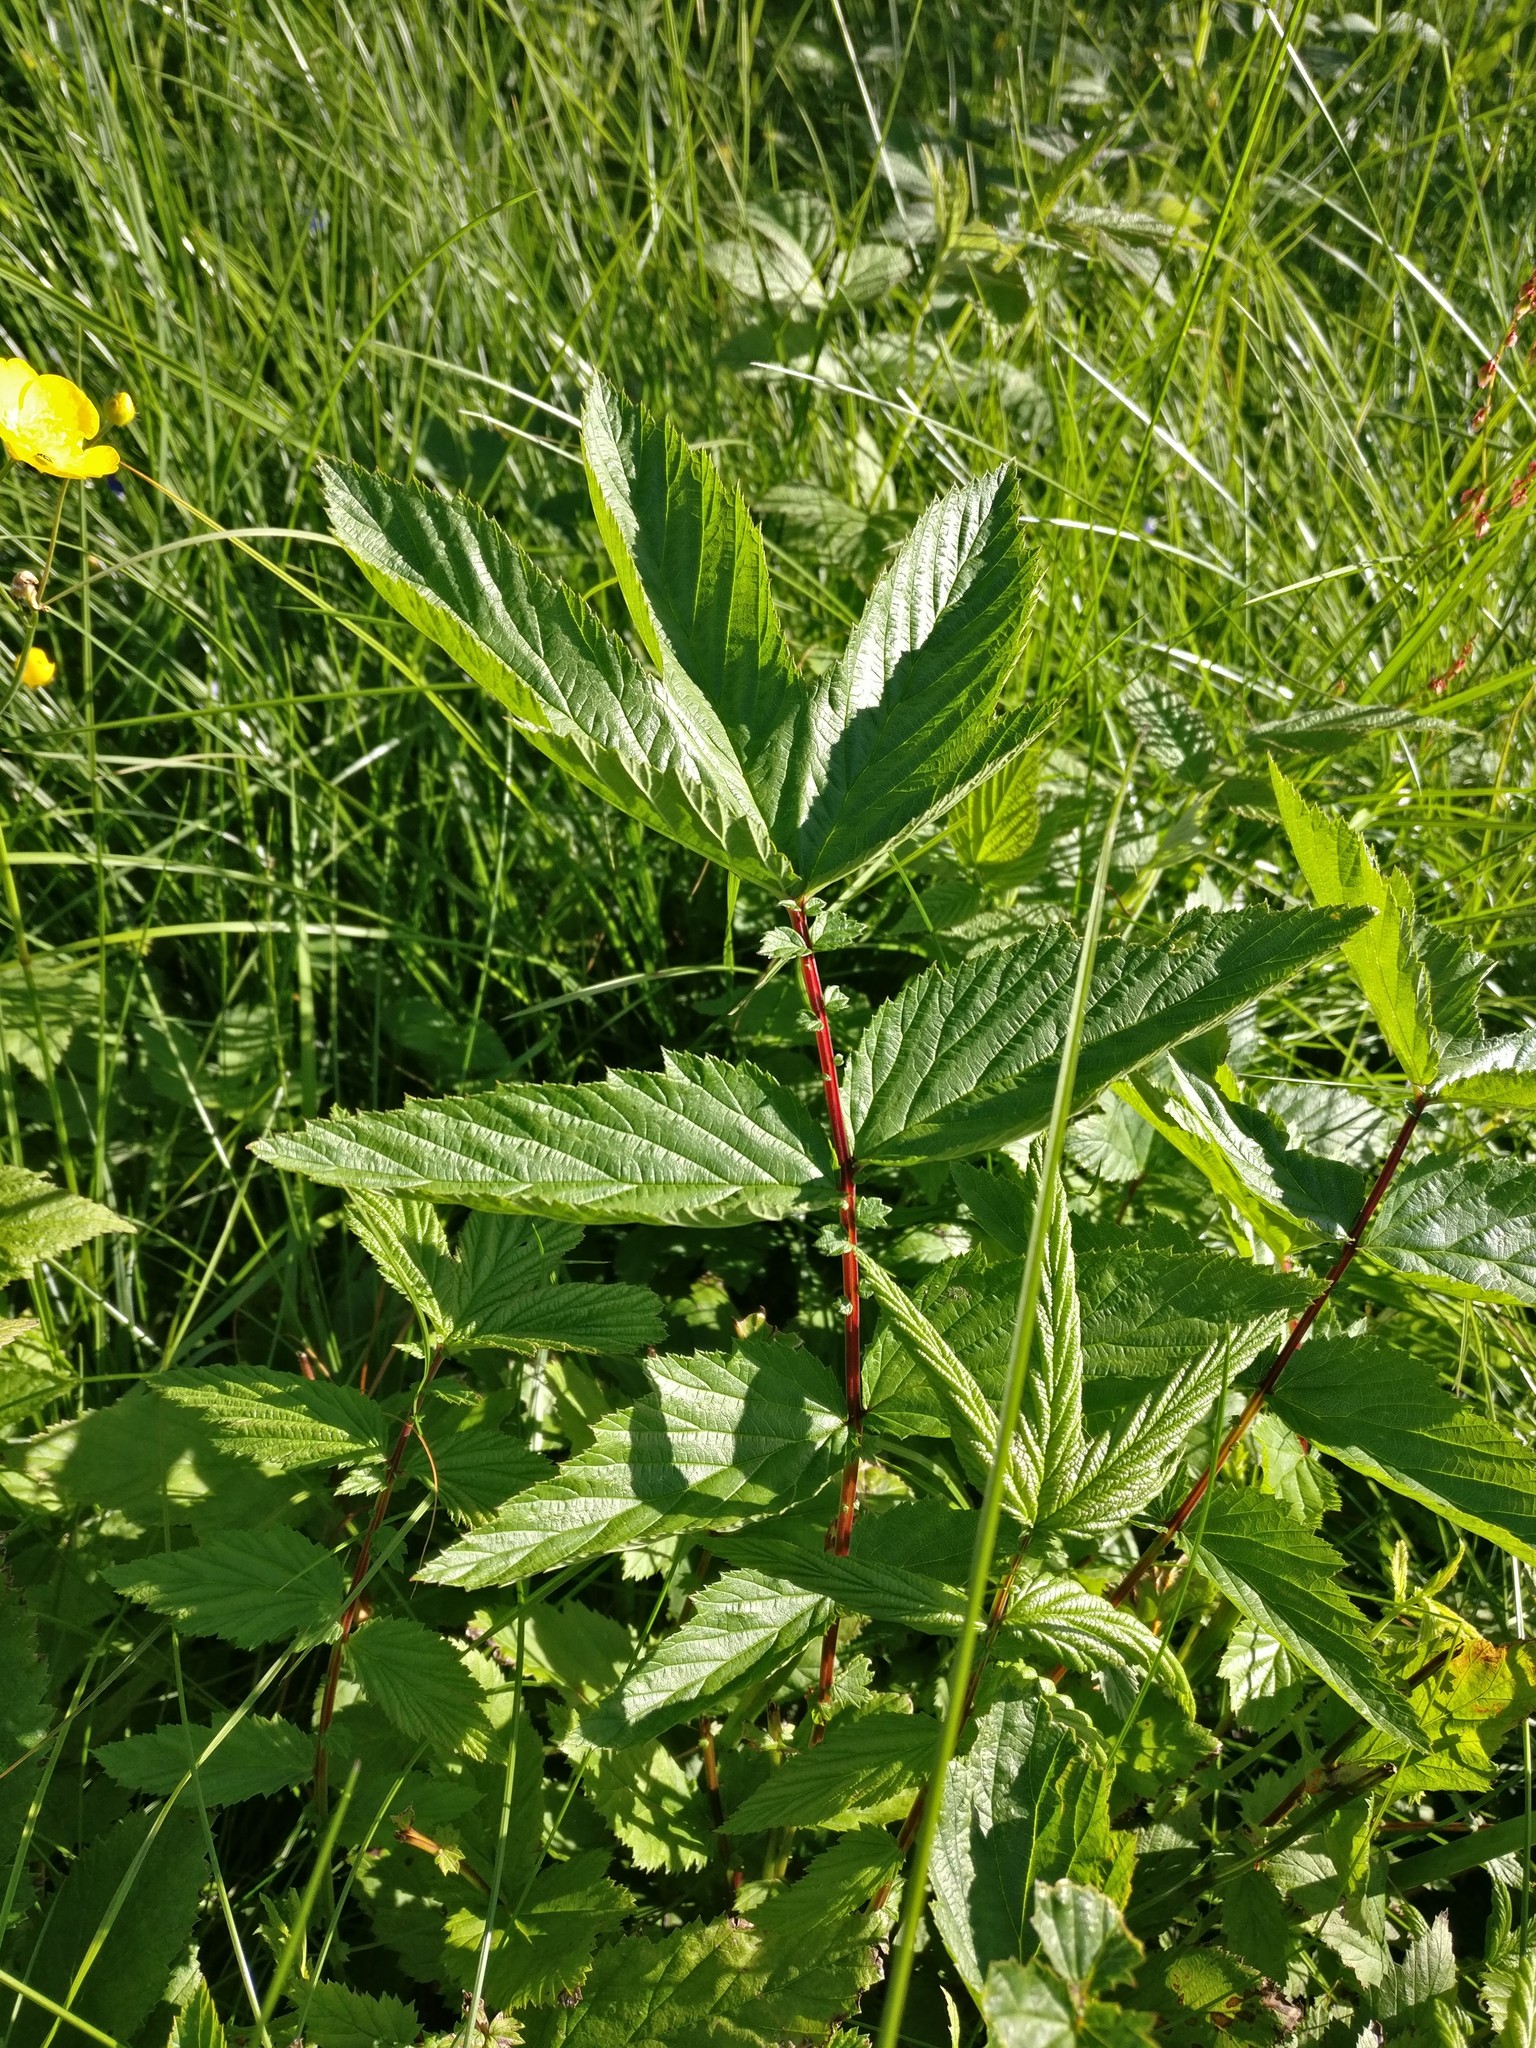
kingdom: Plantae
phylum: Tracheophyta
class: Magnoliopsida
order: Rosales
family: Rosaceae
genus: Filipendula
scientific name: Filipendula ulmaria
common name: Meadowsweet
